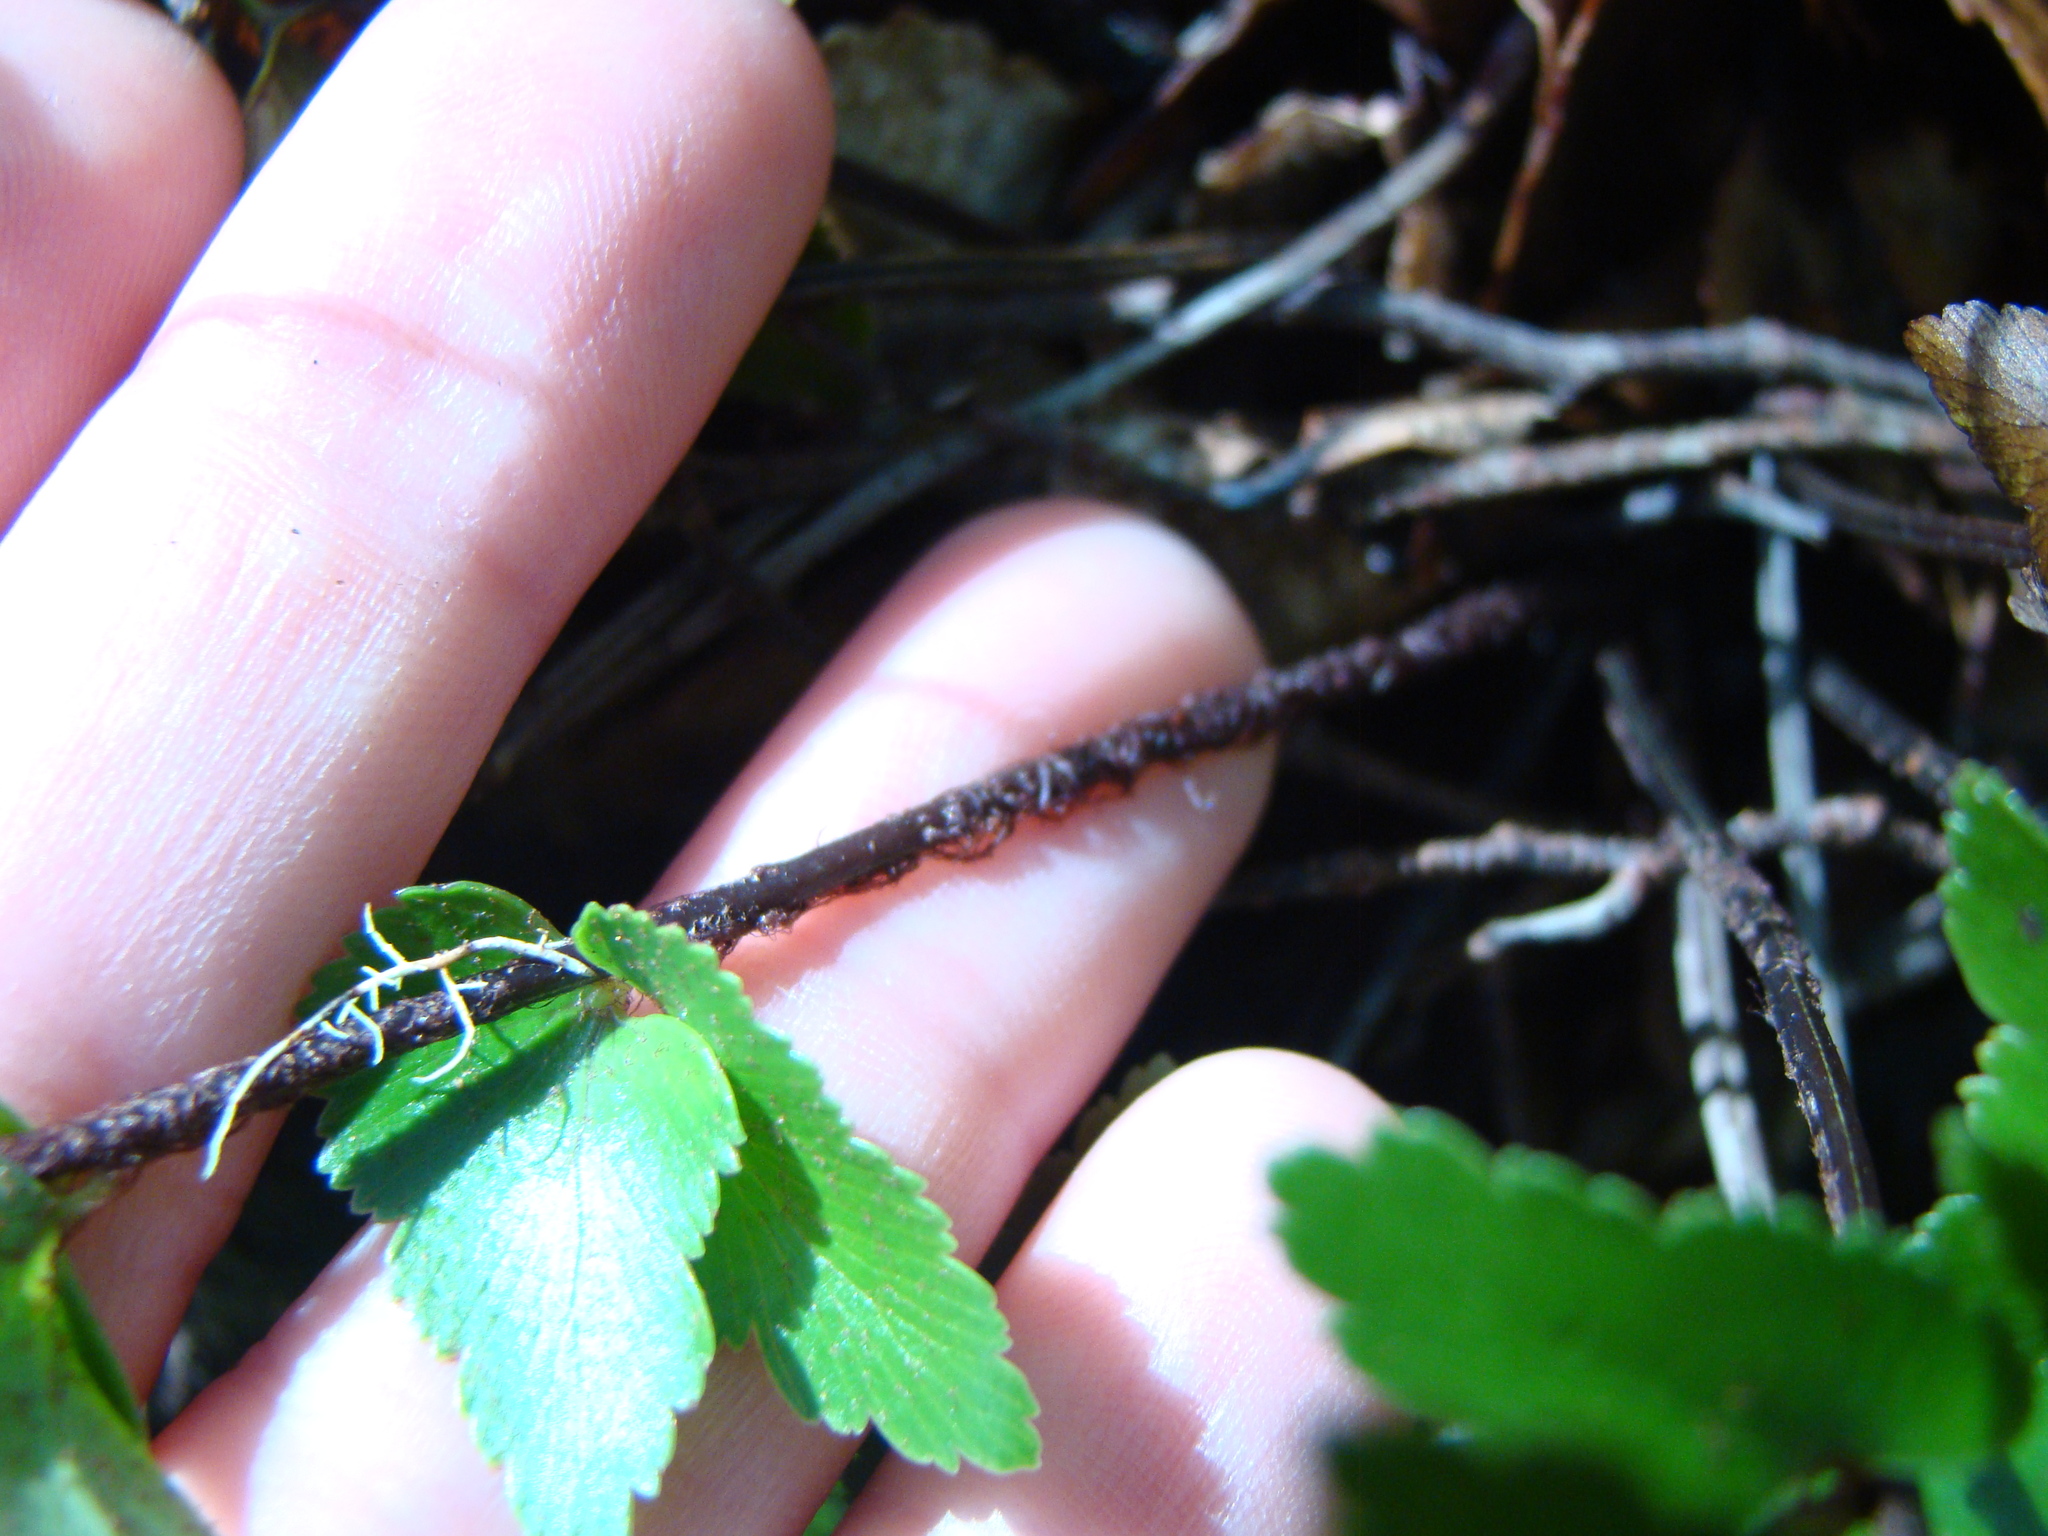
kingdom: Plantae
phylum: Tracheophyta
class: Polypodiopsida
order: Polypodiales
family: Aspleniaceae
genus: Asplenium
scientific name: Asplenium polyodon
